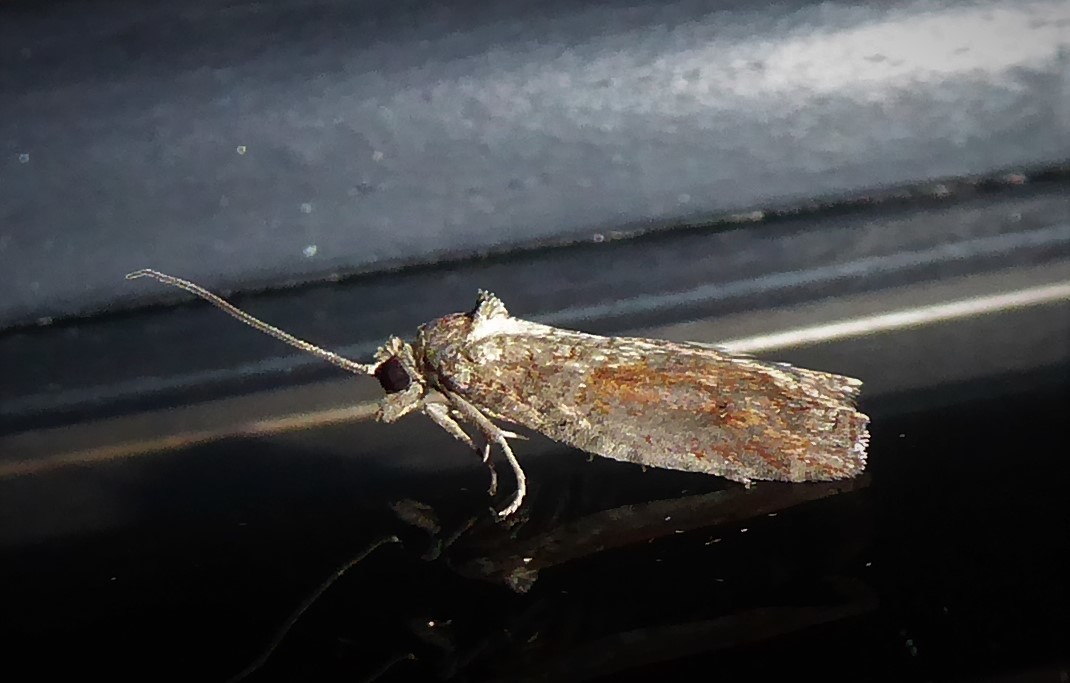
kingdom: Animalia
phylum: Arthropoda
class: Insecta
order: Lepidoptera
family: Tortricidae
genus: Harmologa
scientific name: Harmologa oblongana
